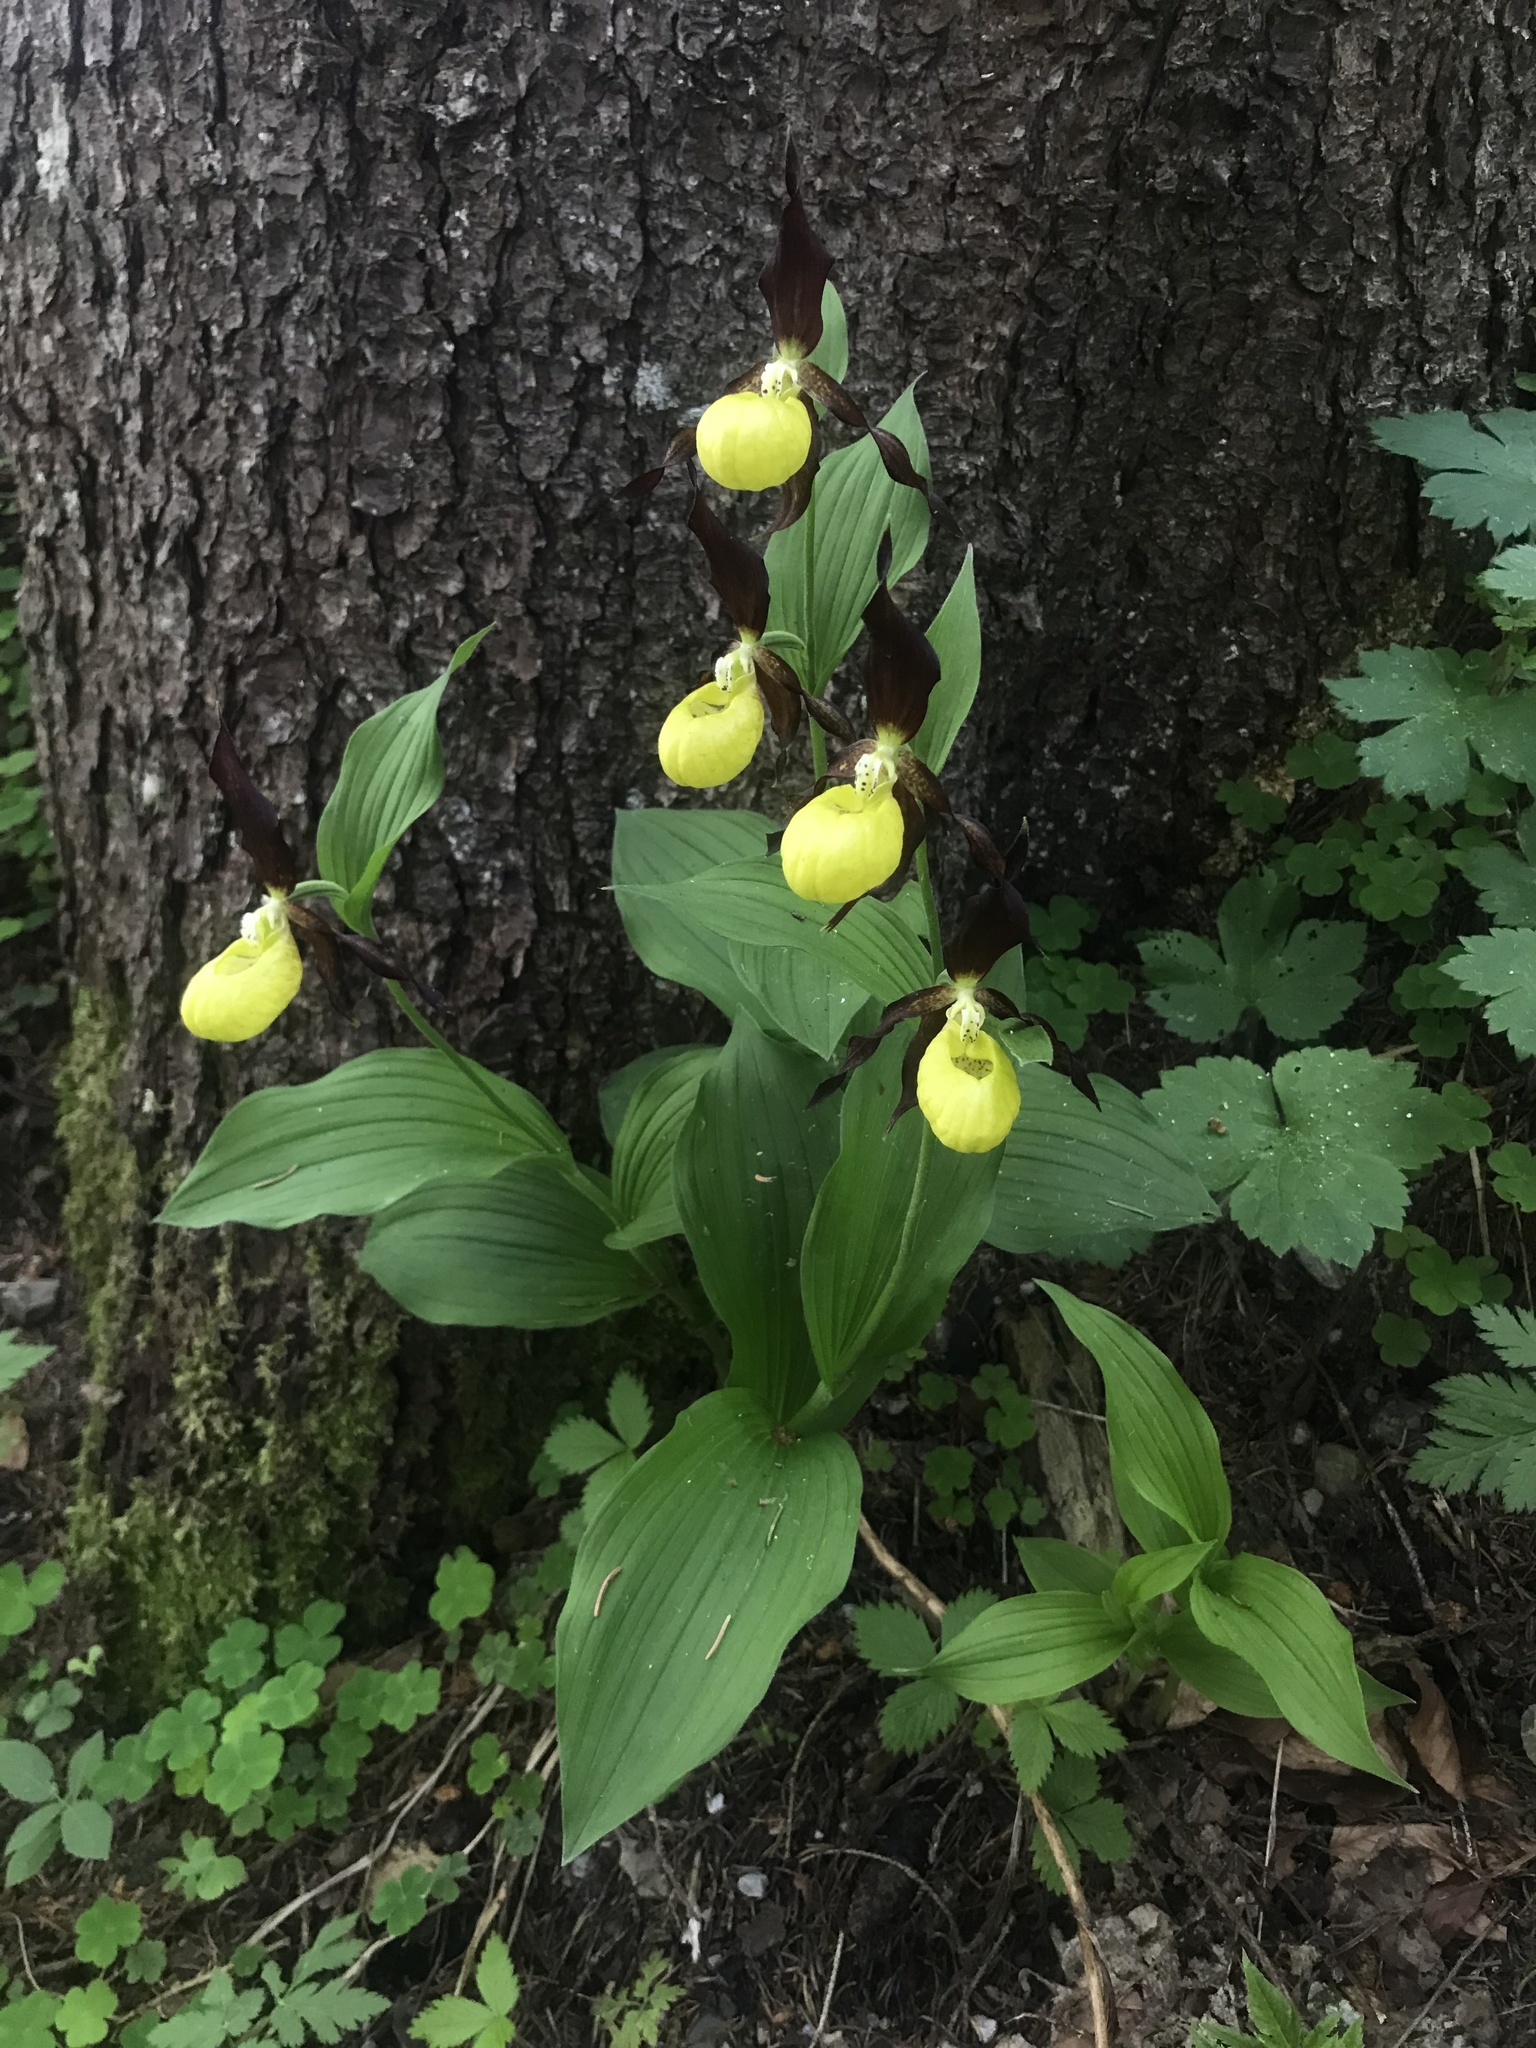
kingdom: Plantae
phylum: Tracheophyta
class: Liliopsida
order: Asparagales
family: Orchidaceae
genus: Cypripedium
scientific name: Cypripedium calceolus
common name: Lady's-slipper
